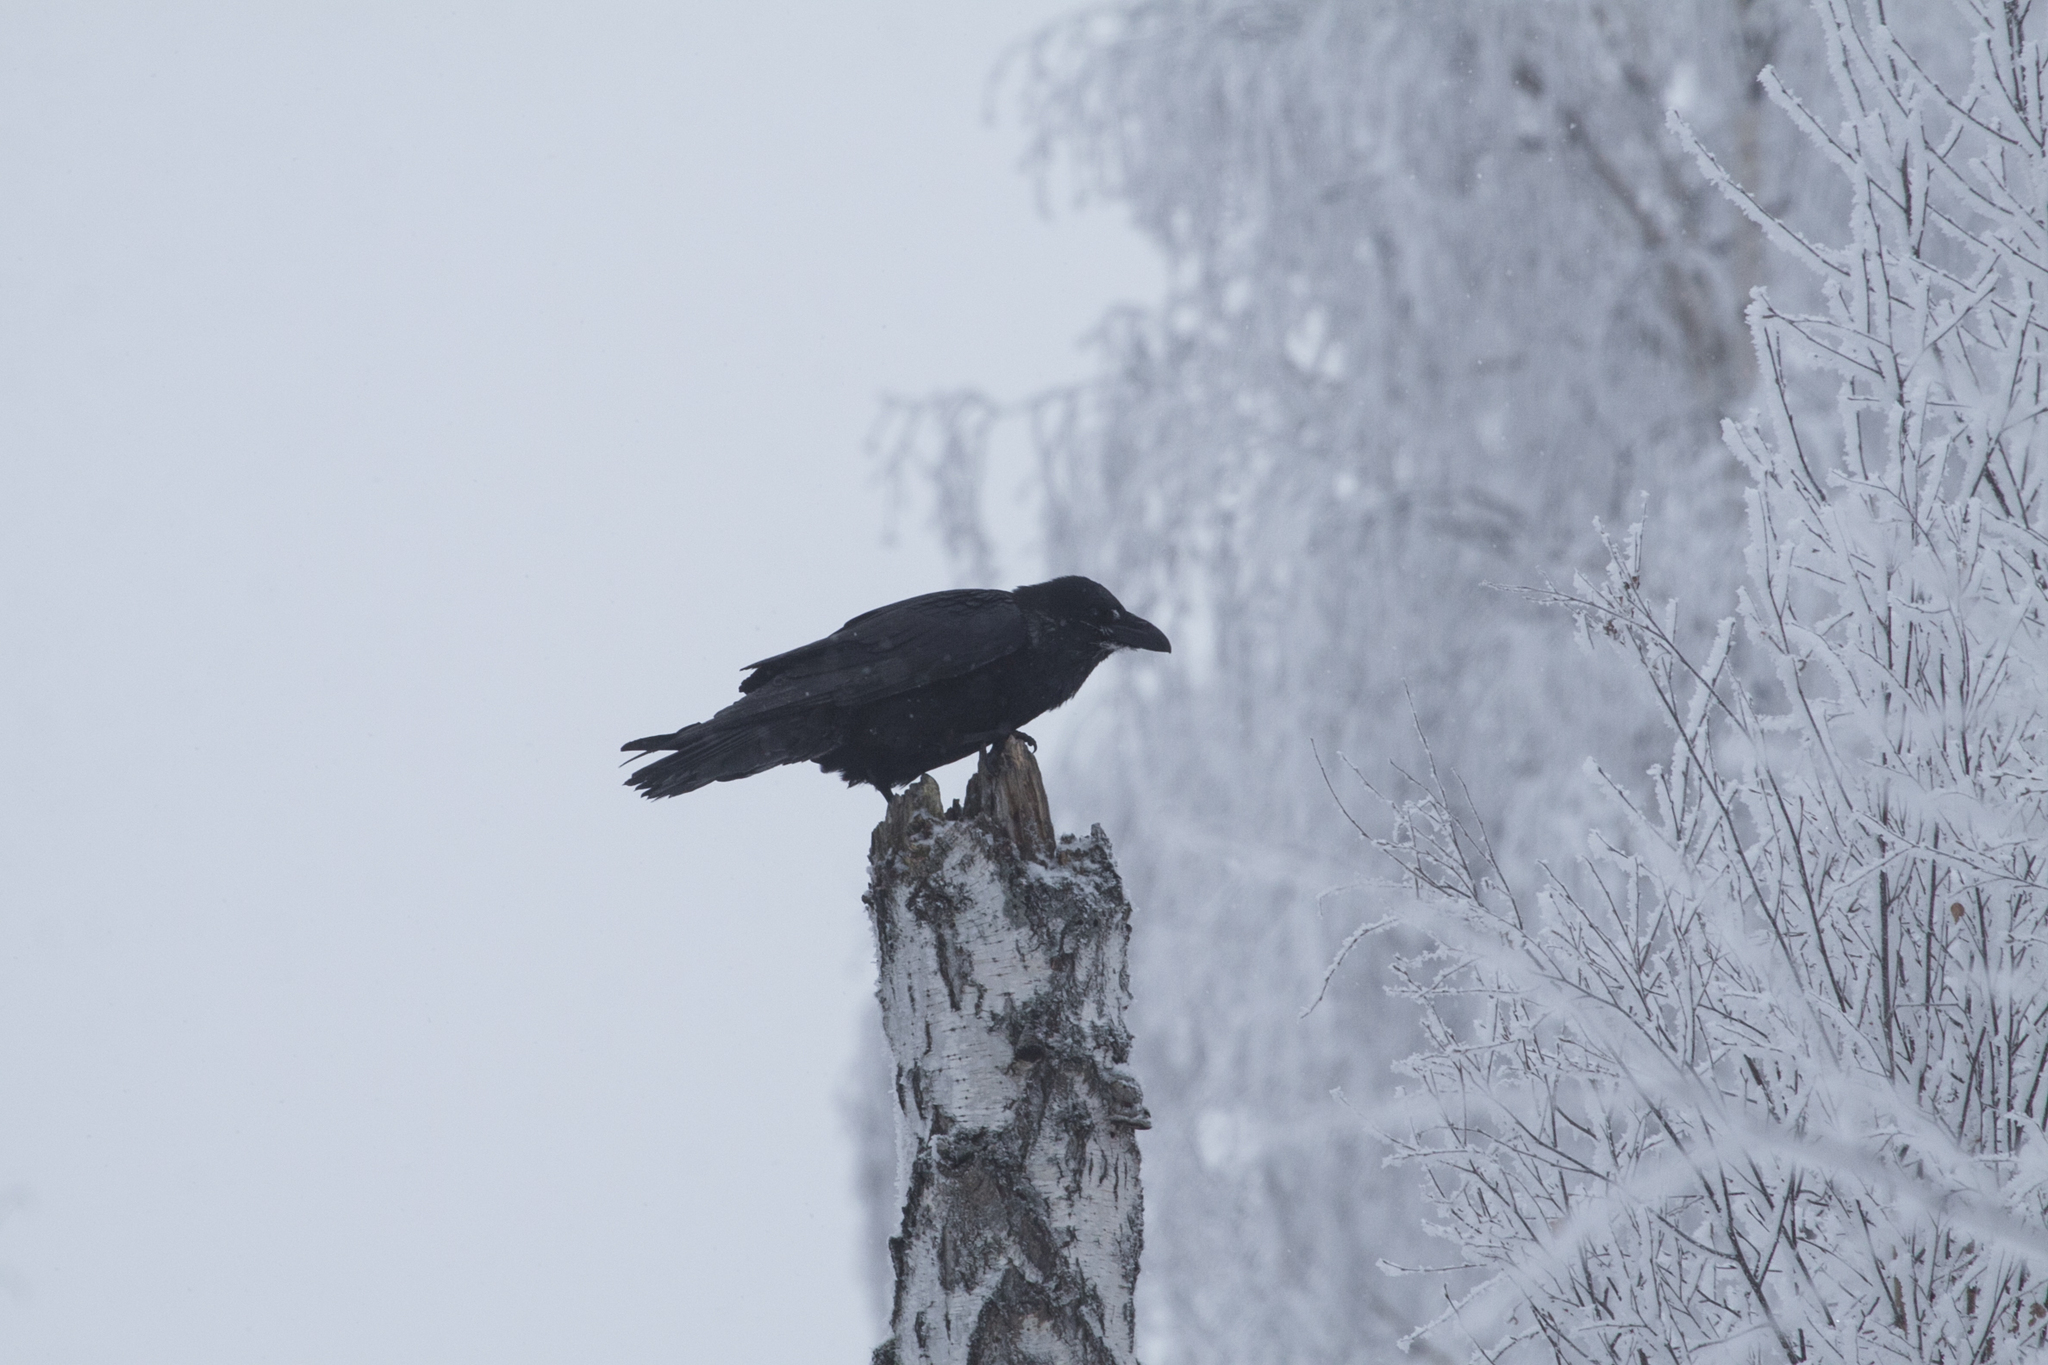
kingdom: Animalia
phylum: Chordata
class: Aves
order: Passeriformes
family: Corvidae
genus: Corvus
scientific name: Corvus corax
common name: Common raven
